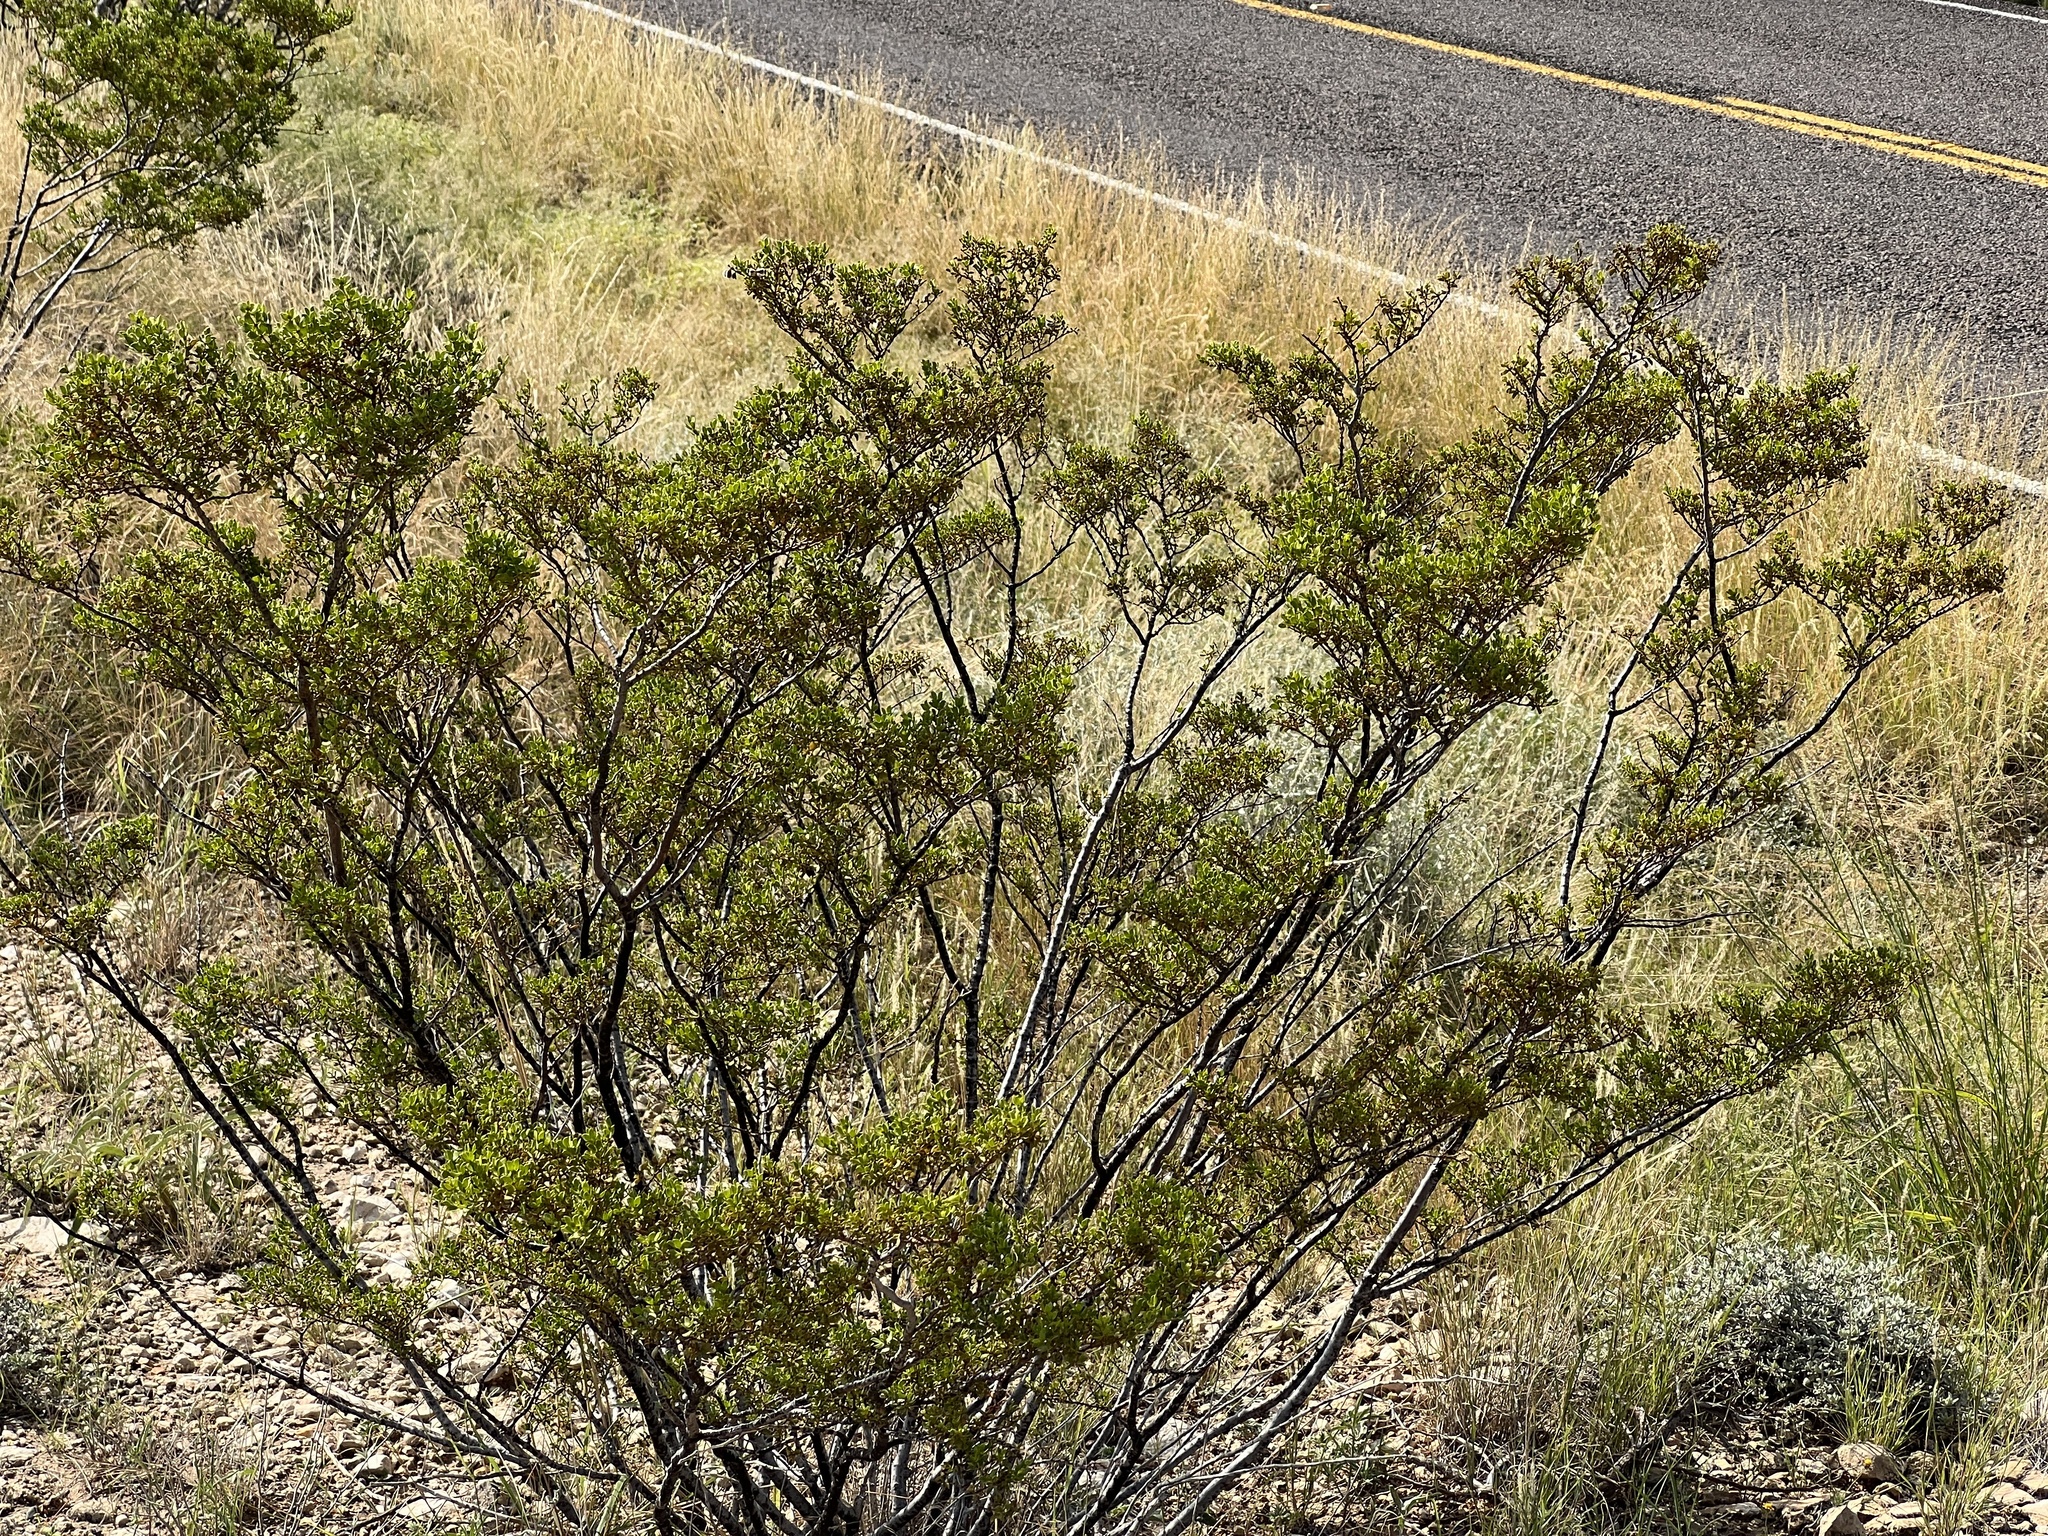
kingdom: Plantae
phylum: Tracheophyta
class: Magnoliopsida
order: Zygophyllales
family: Zygophyllaceae
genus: Larrea
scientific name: Larrea tridentata
